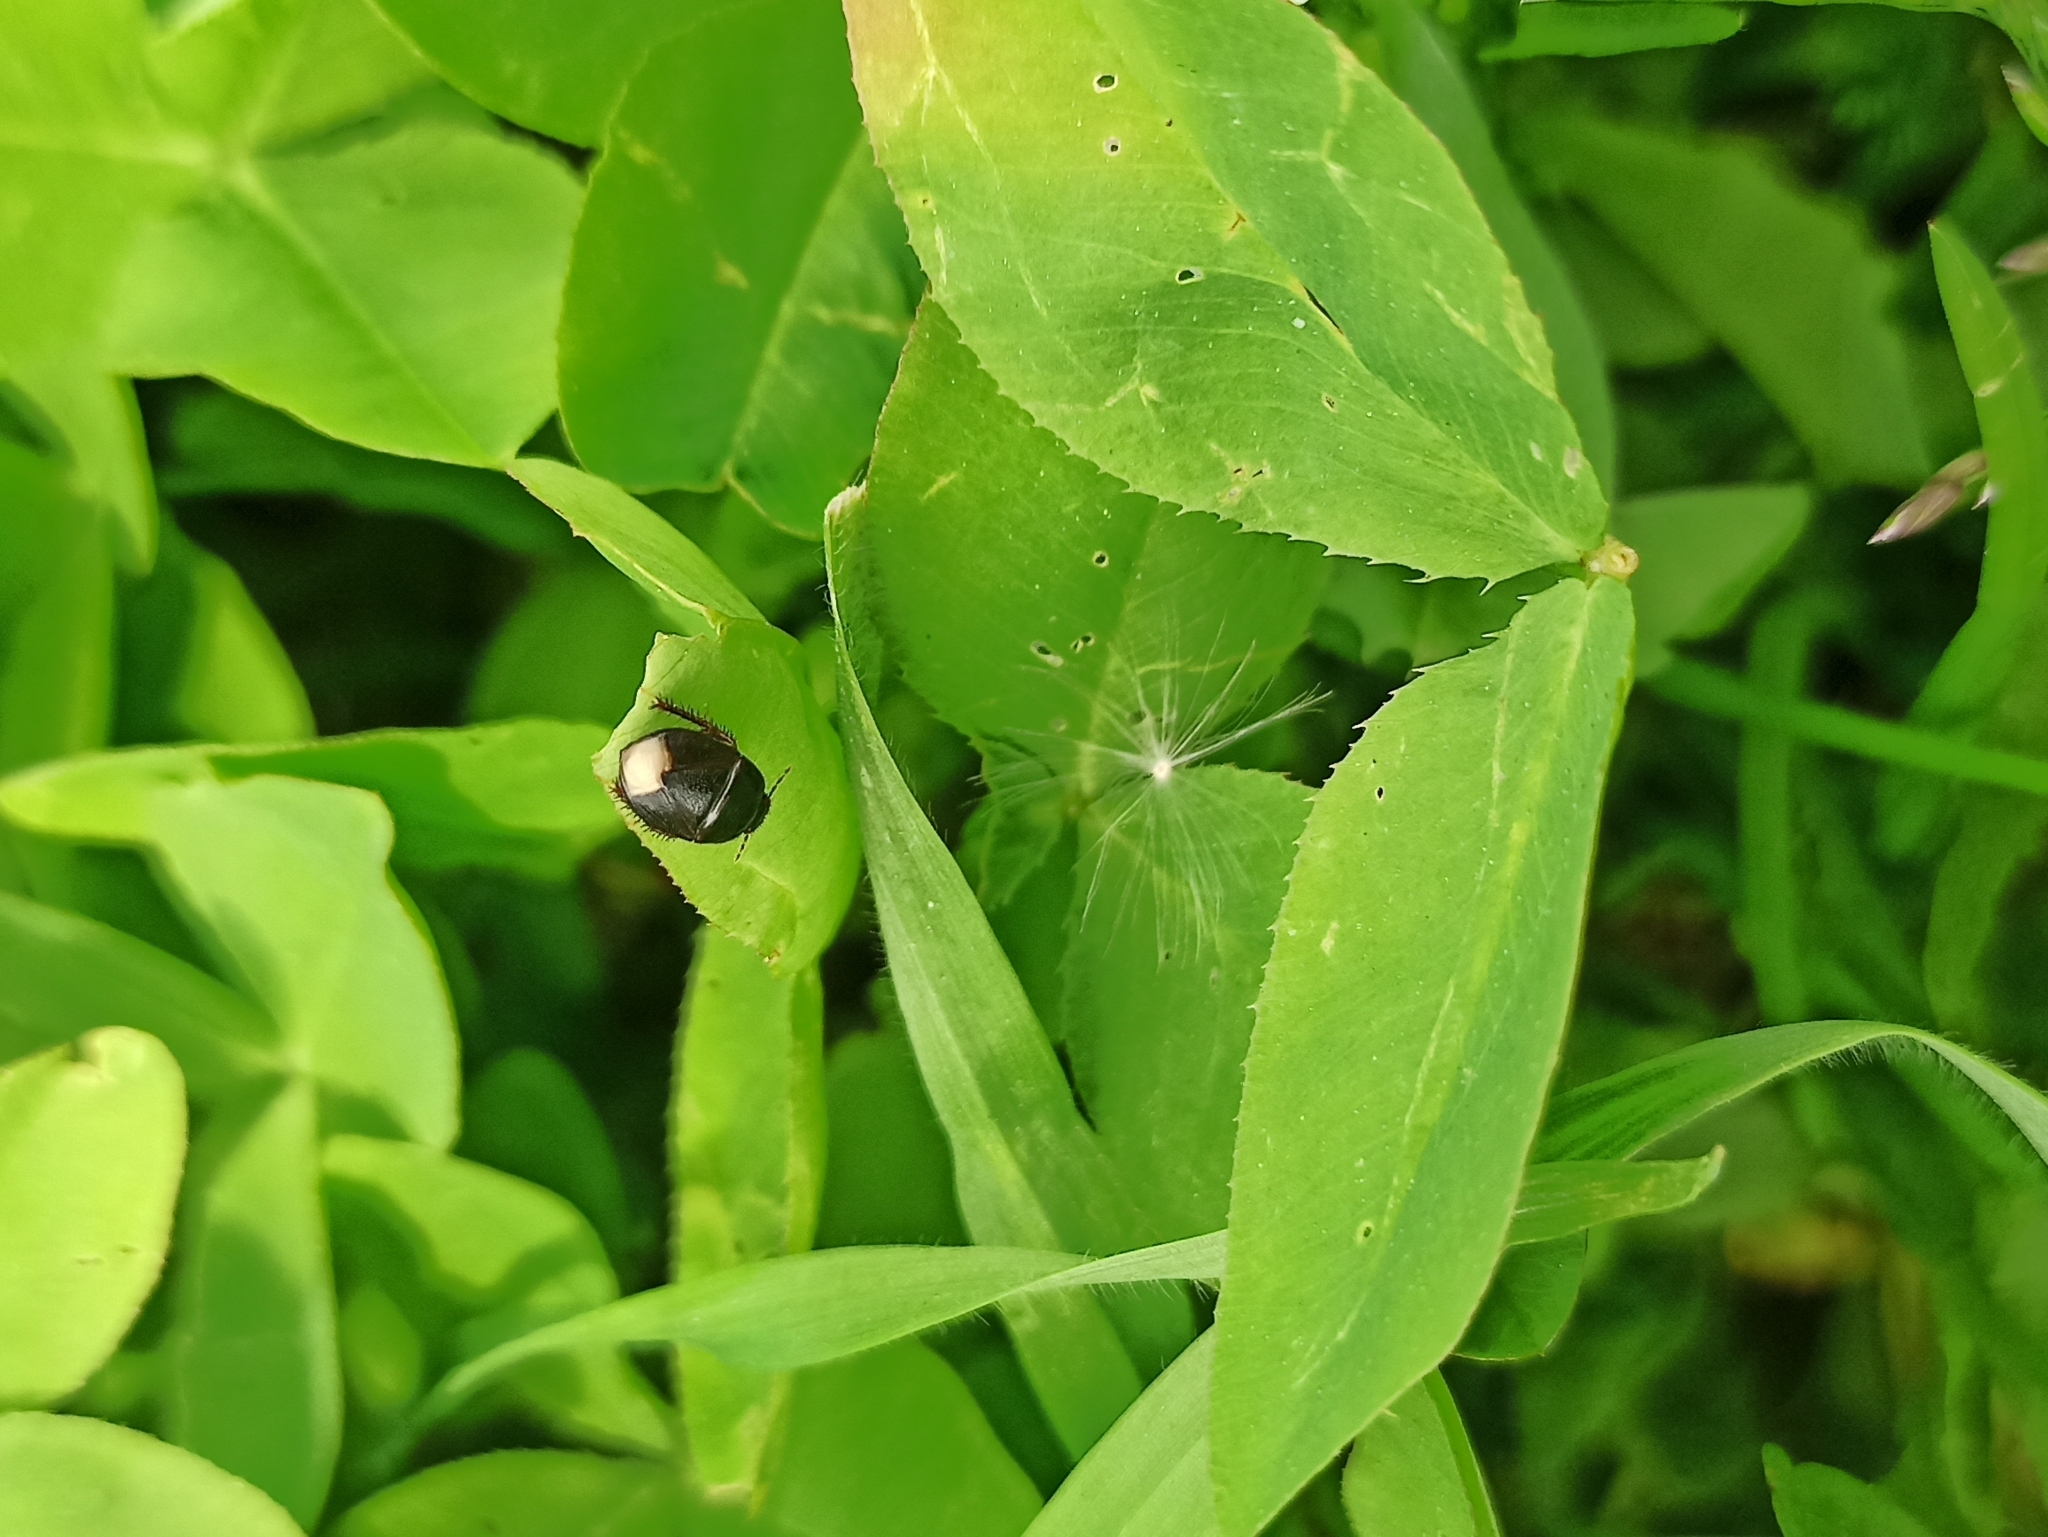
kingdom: Animalia
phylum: Arthropoda
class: Insecta
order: Hemiptera
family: Cydnidae
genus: Sehirus
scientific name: Sehirus luctuosus
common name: Forget-me-not shieldbug
